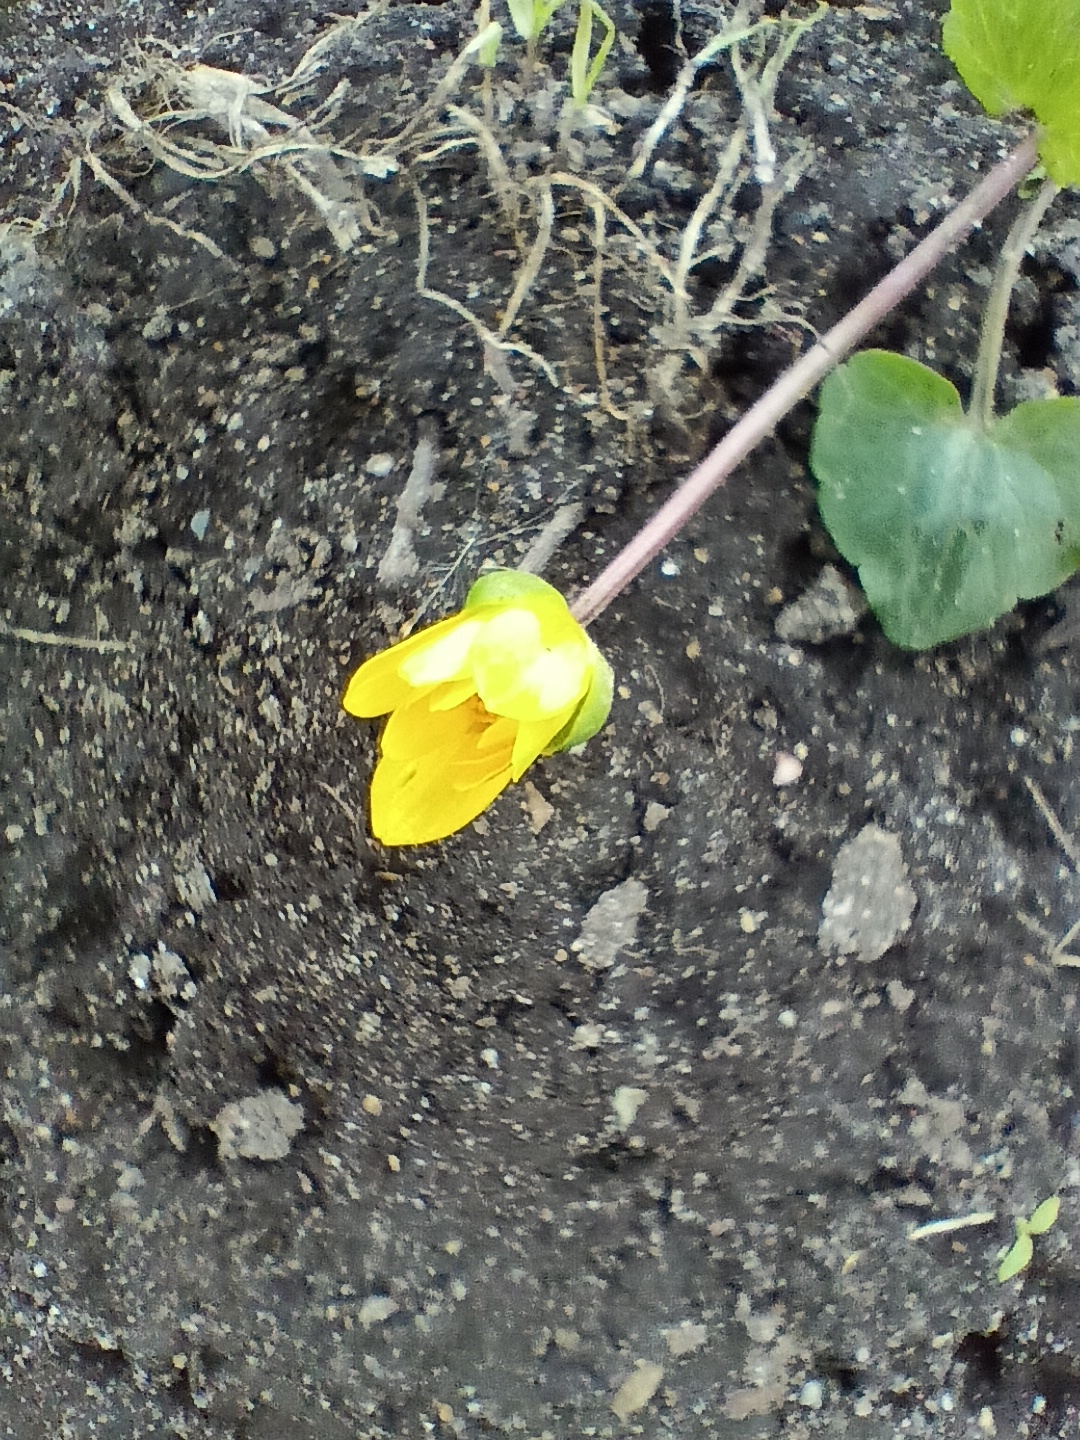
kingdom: Plantae
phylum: Tracheophyta
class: Magnoliopsida
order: Ranunculales
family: Ranunculaceae
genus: Ficaria
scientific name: Ficaria verna
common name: Lesser celandine
